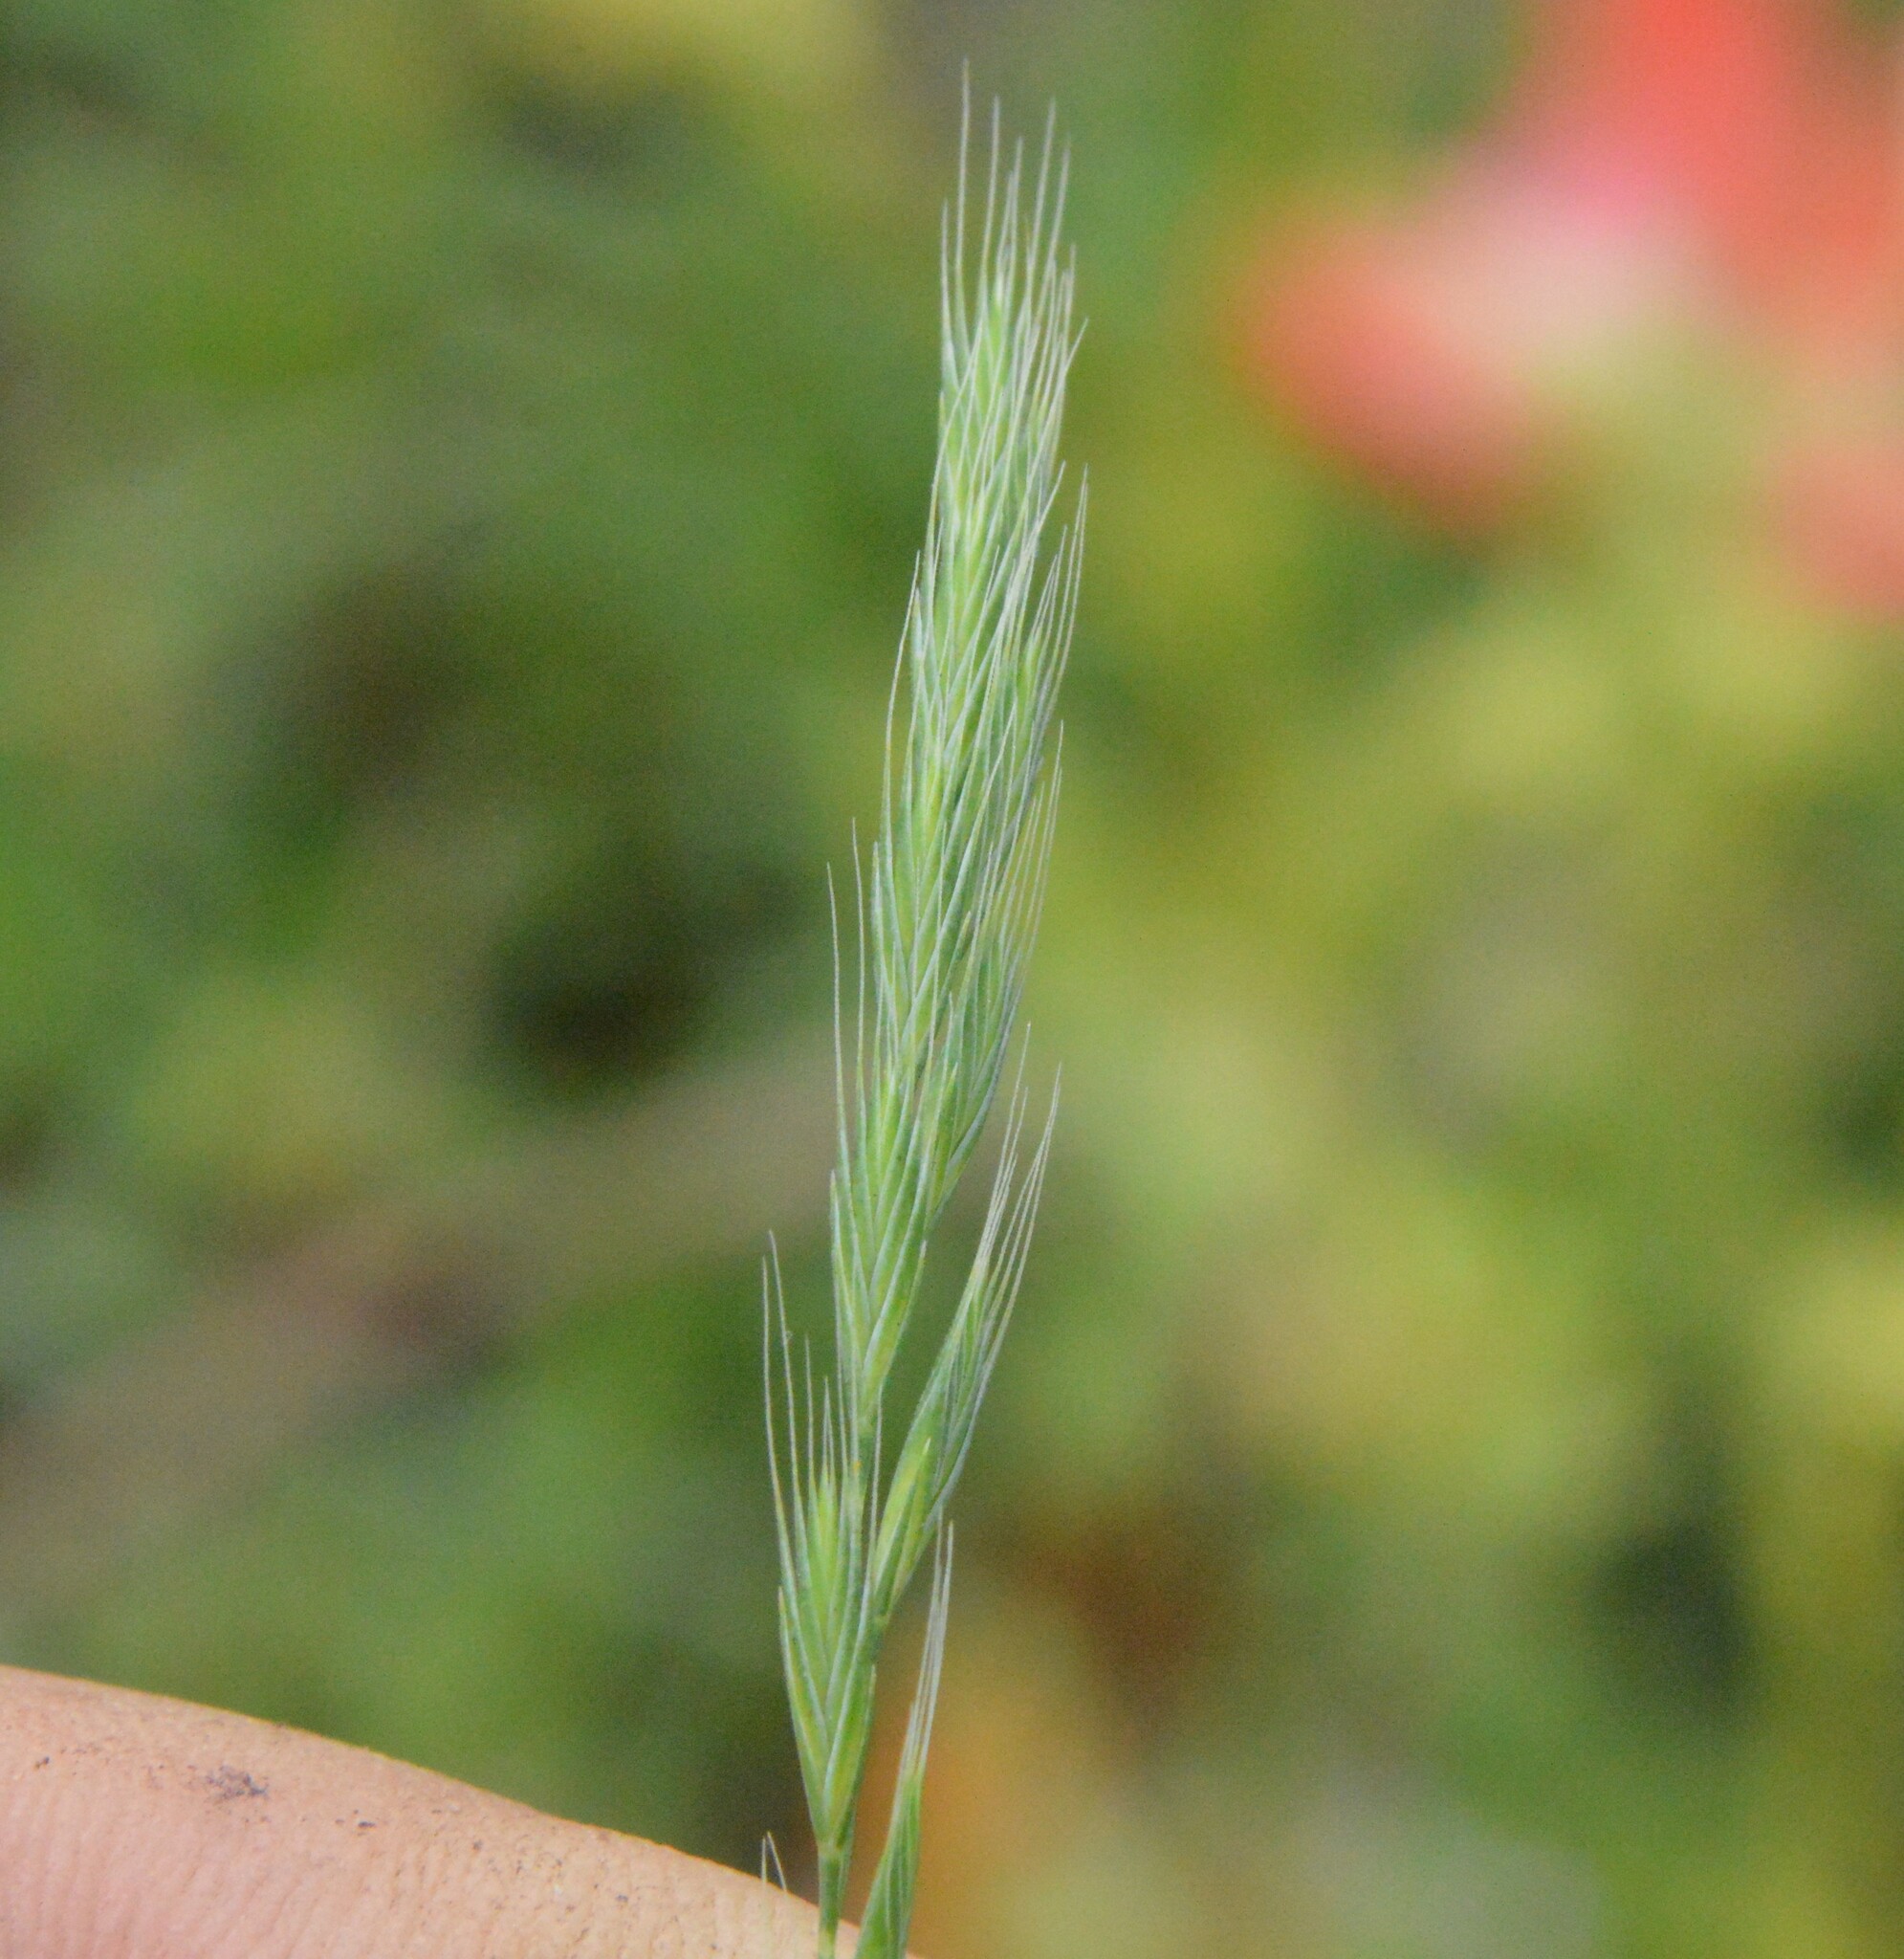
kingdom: Plantae
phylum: Tracheophyta
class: Liliopsida
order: Poales
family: Poaceae
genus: Festuca
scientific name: Festuca octoflora
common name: Sixweeks grass
